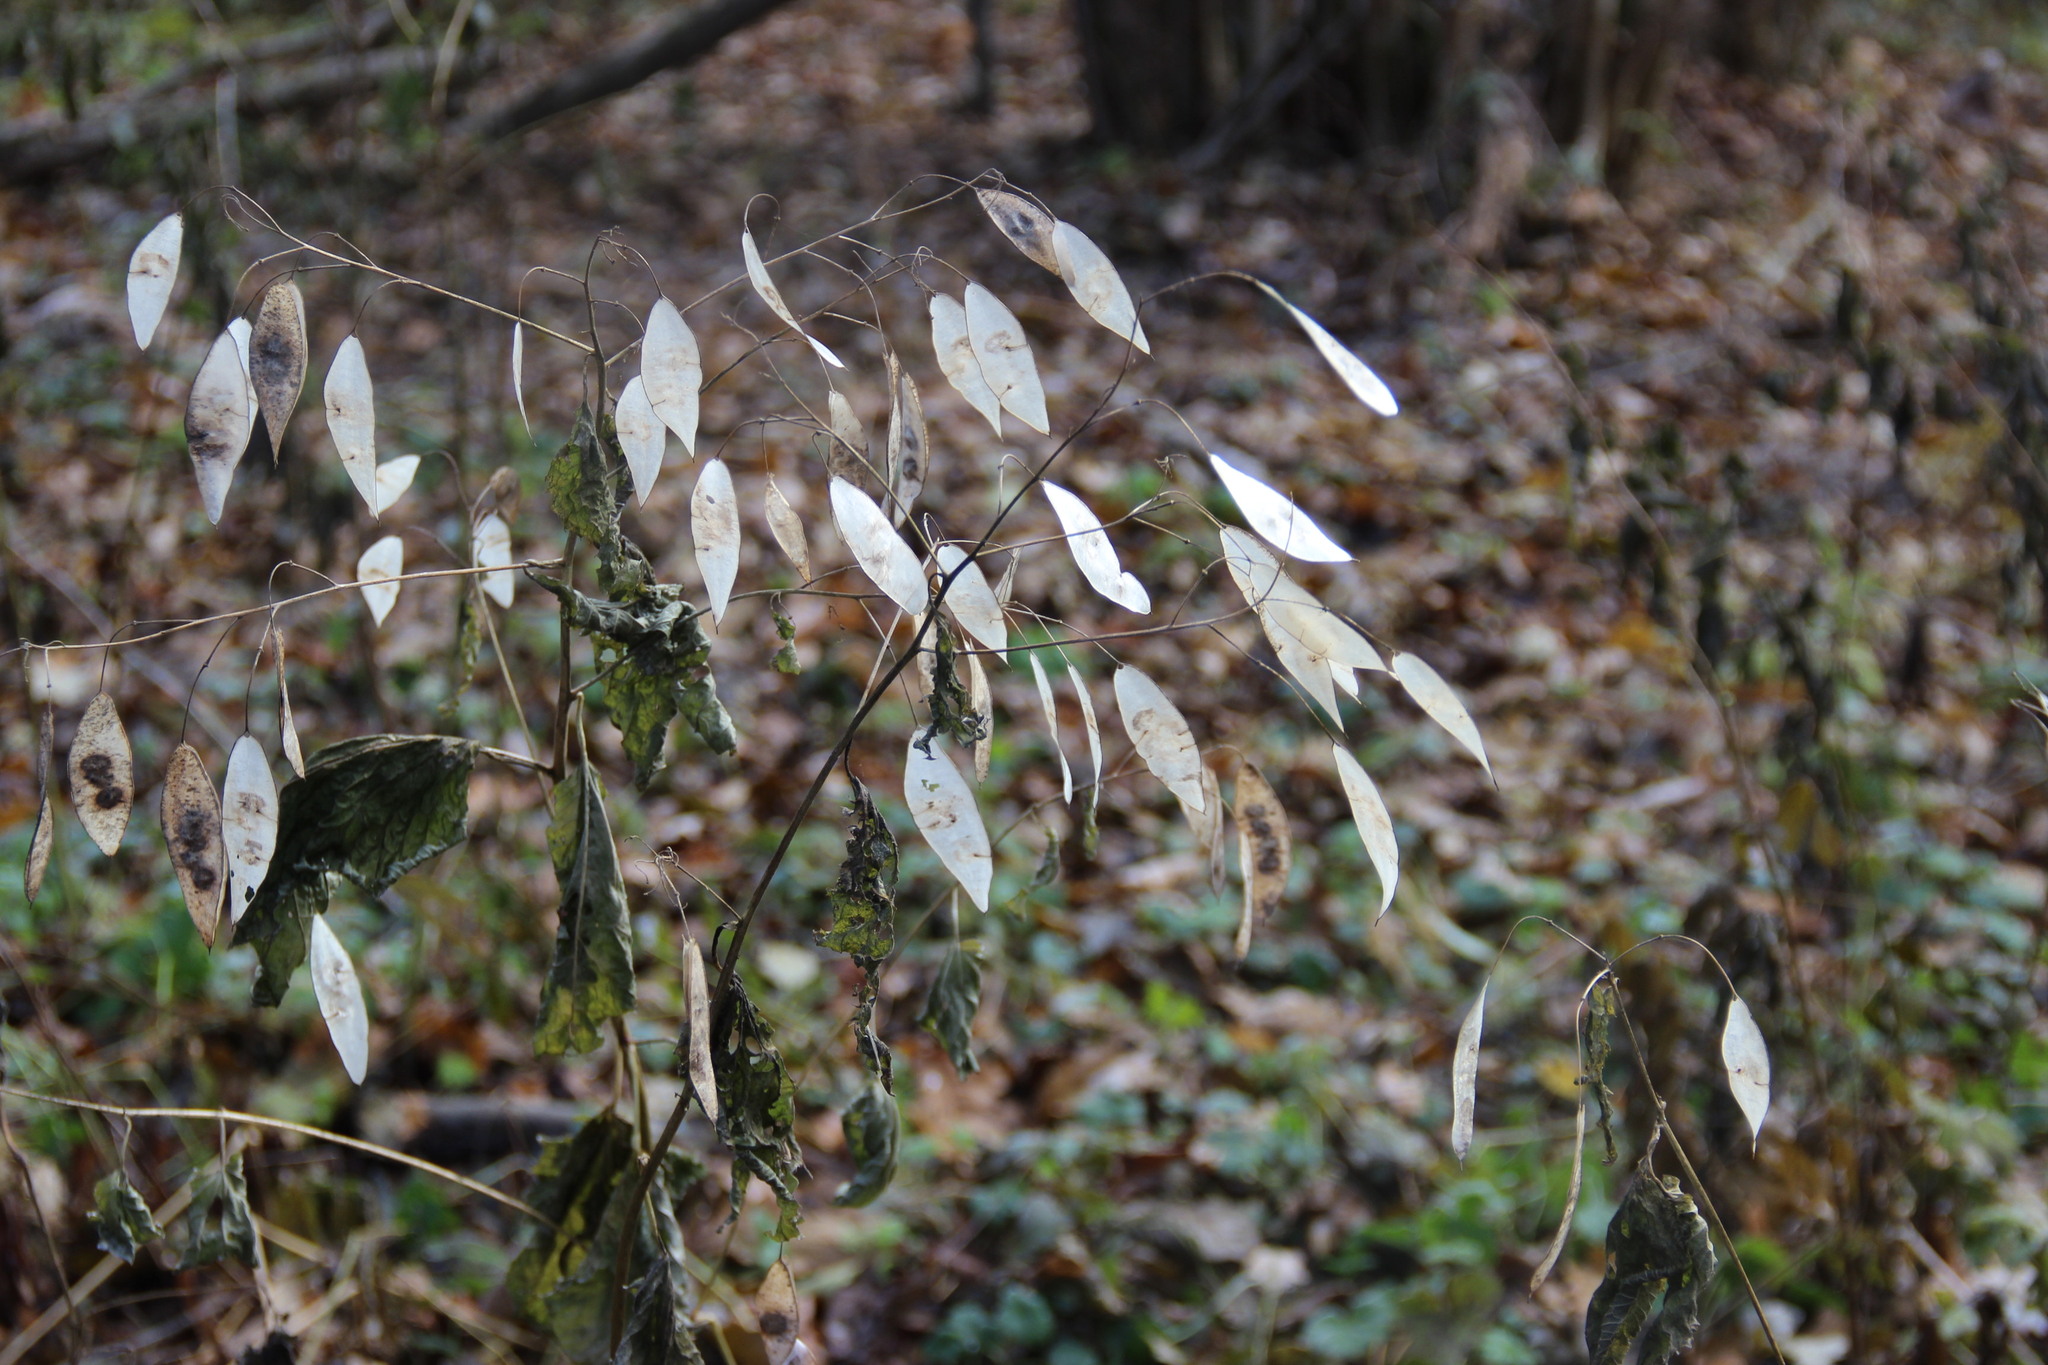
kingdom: Plantae
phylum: Tracheophyta
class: Magnoliopsida
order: Brassicales
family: Brassicaceae
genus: Lunaria
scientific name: Lunaria rediviva
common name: Perennial honesty
